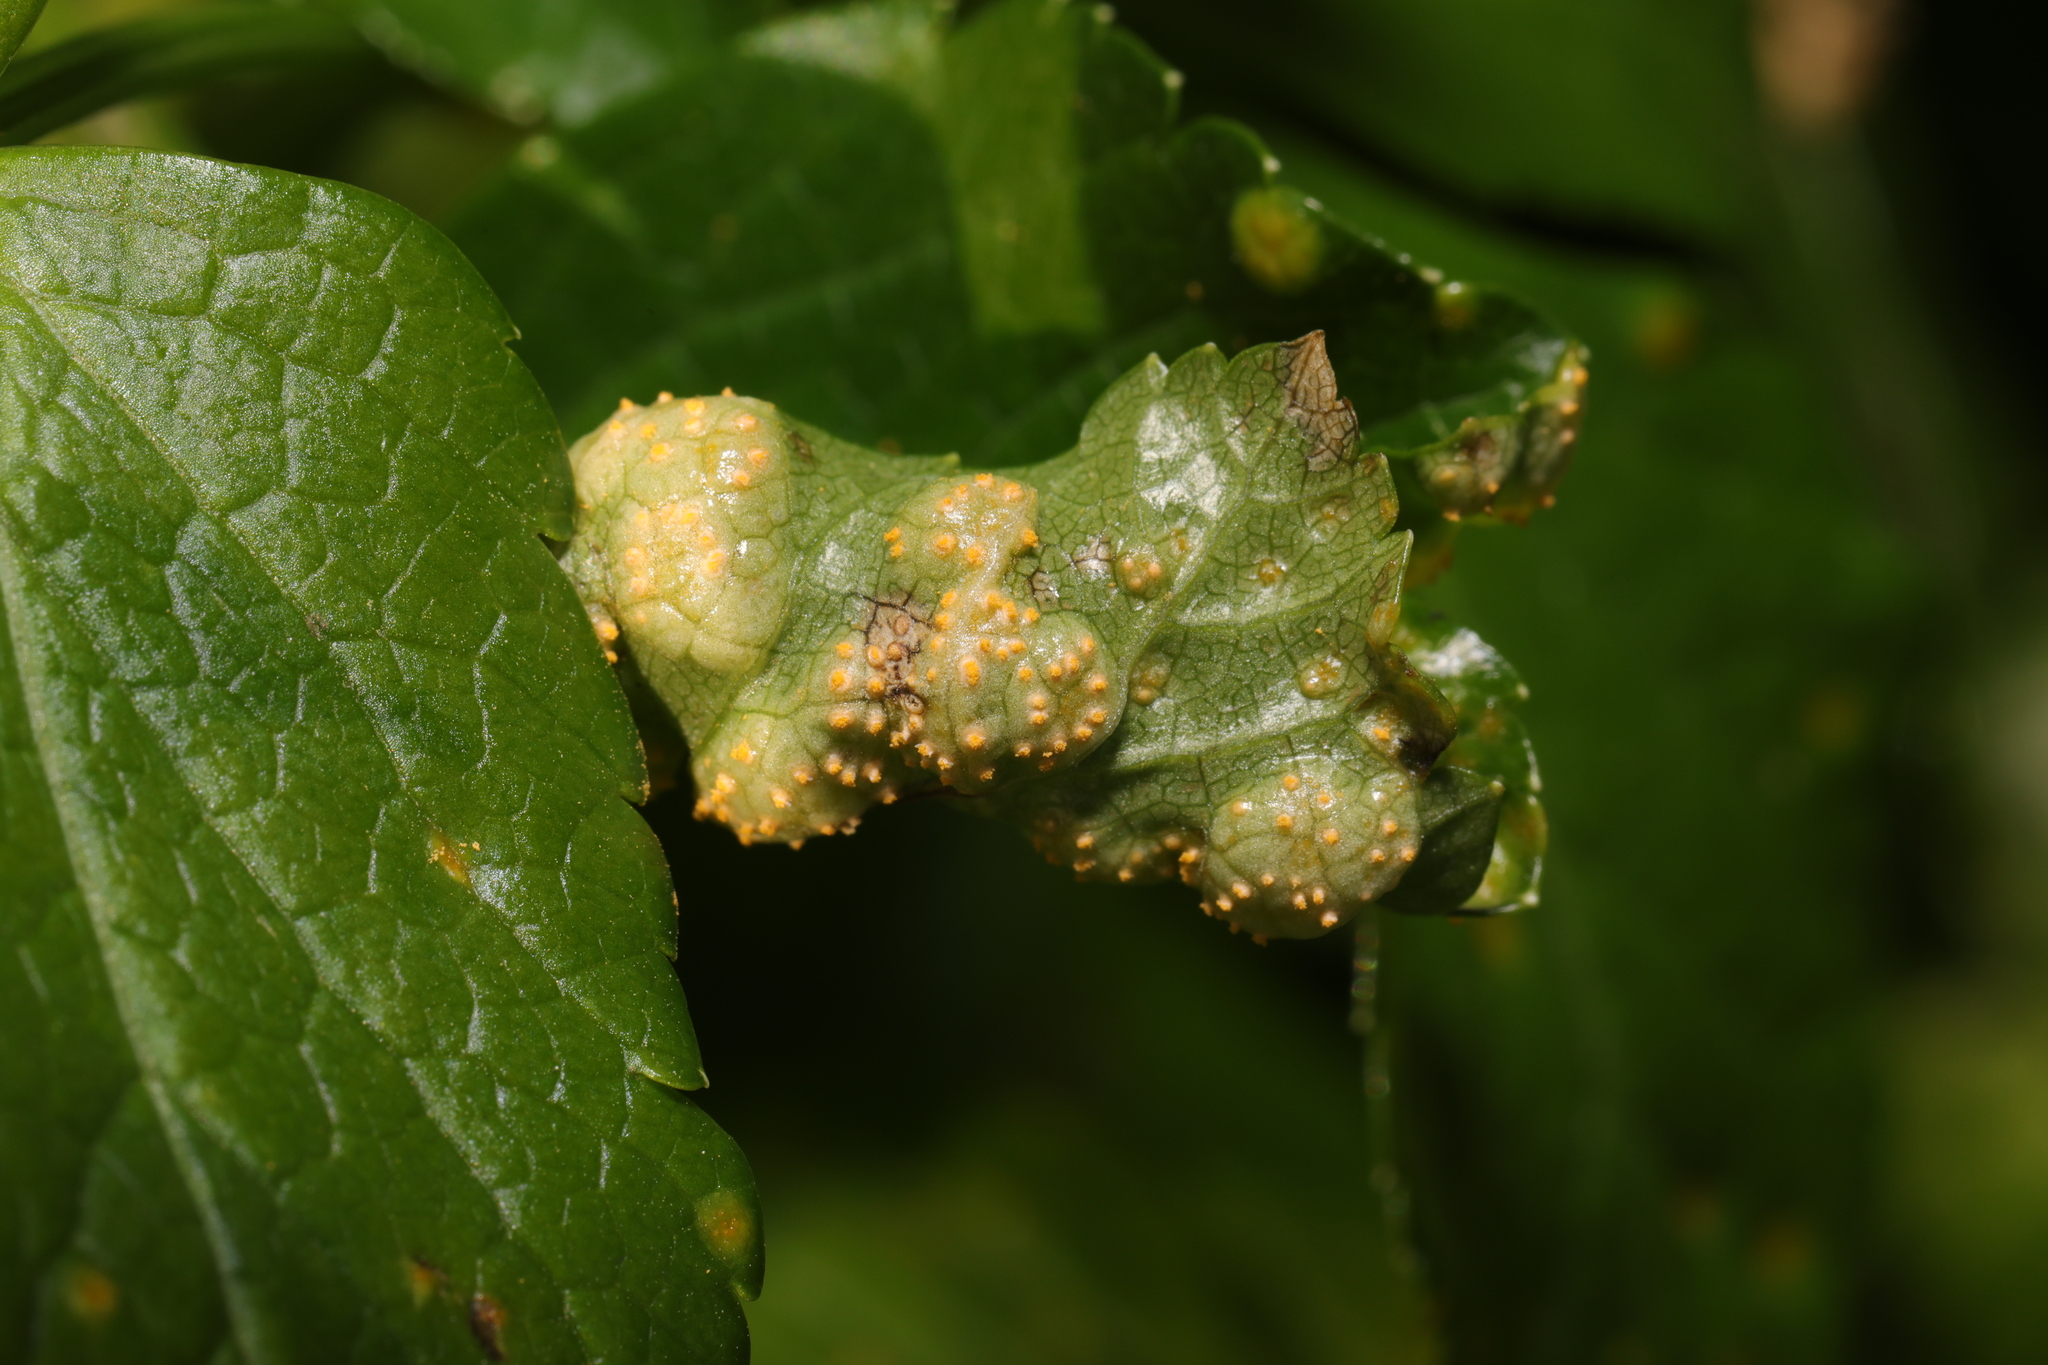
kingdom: Fungi
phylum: Basidiomycota
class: Pucciniomycetes
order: Pucciniales
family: Pucciniaceae
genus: Puccinia
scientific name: Puccinia smyrnii
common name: Alexanders rust
